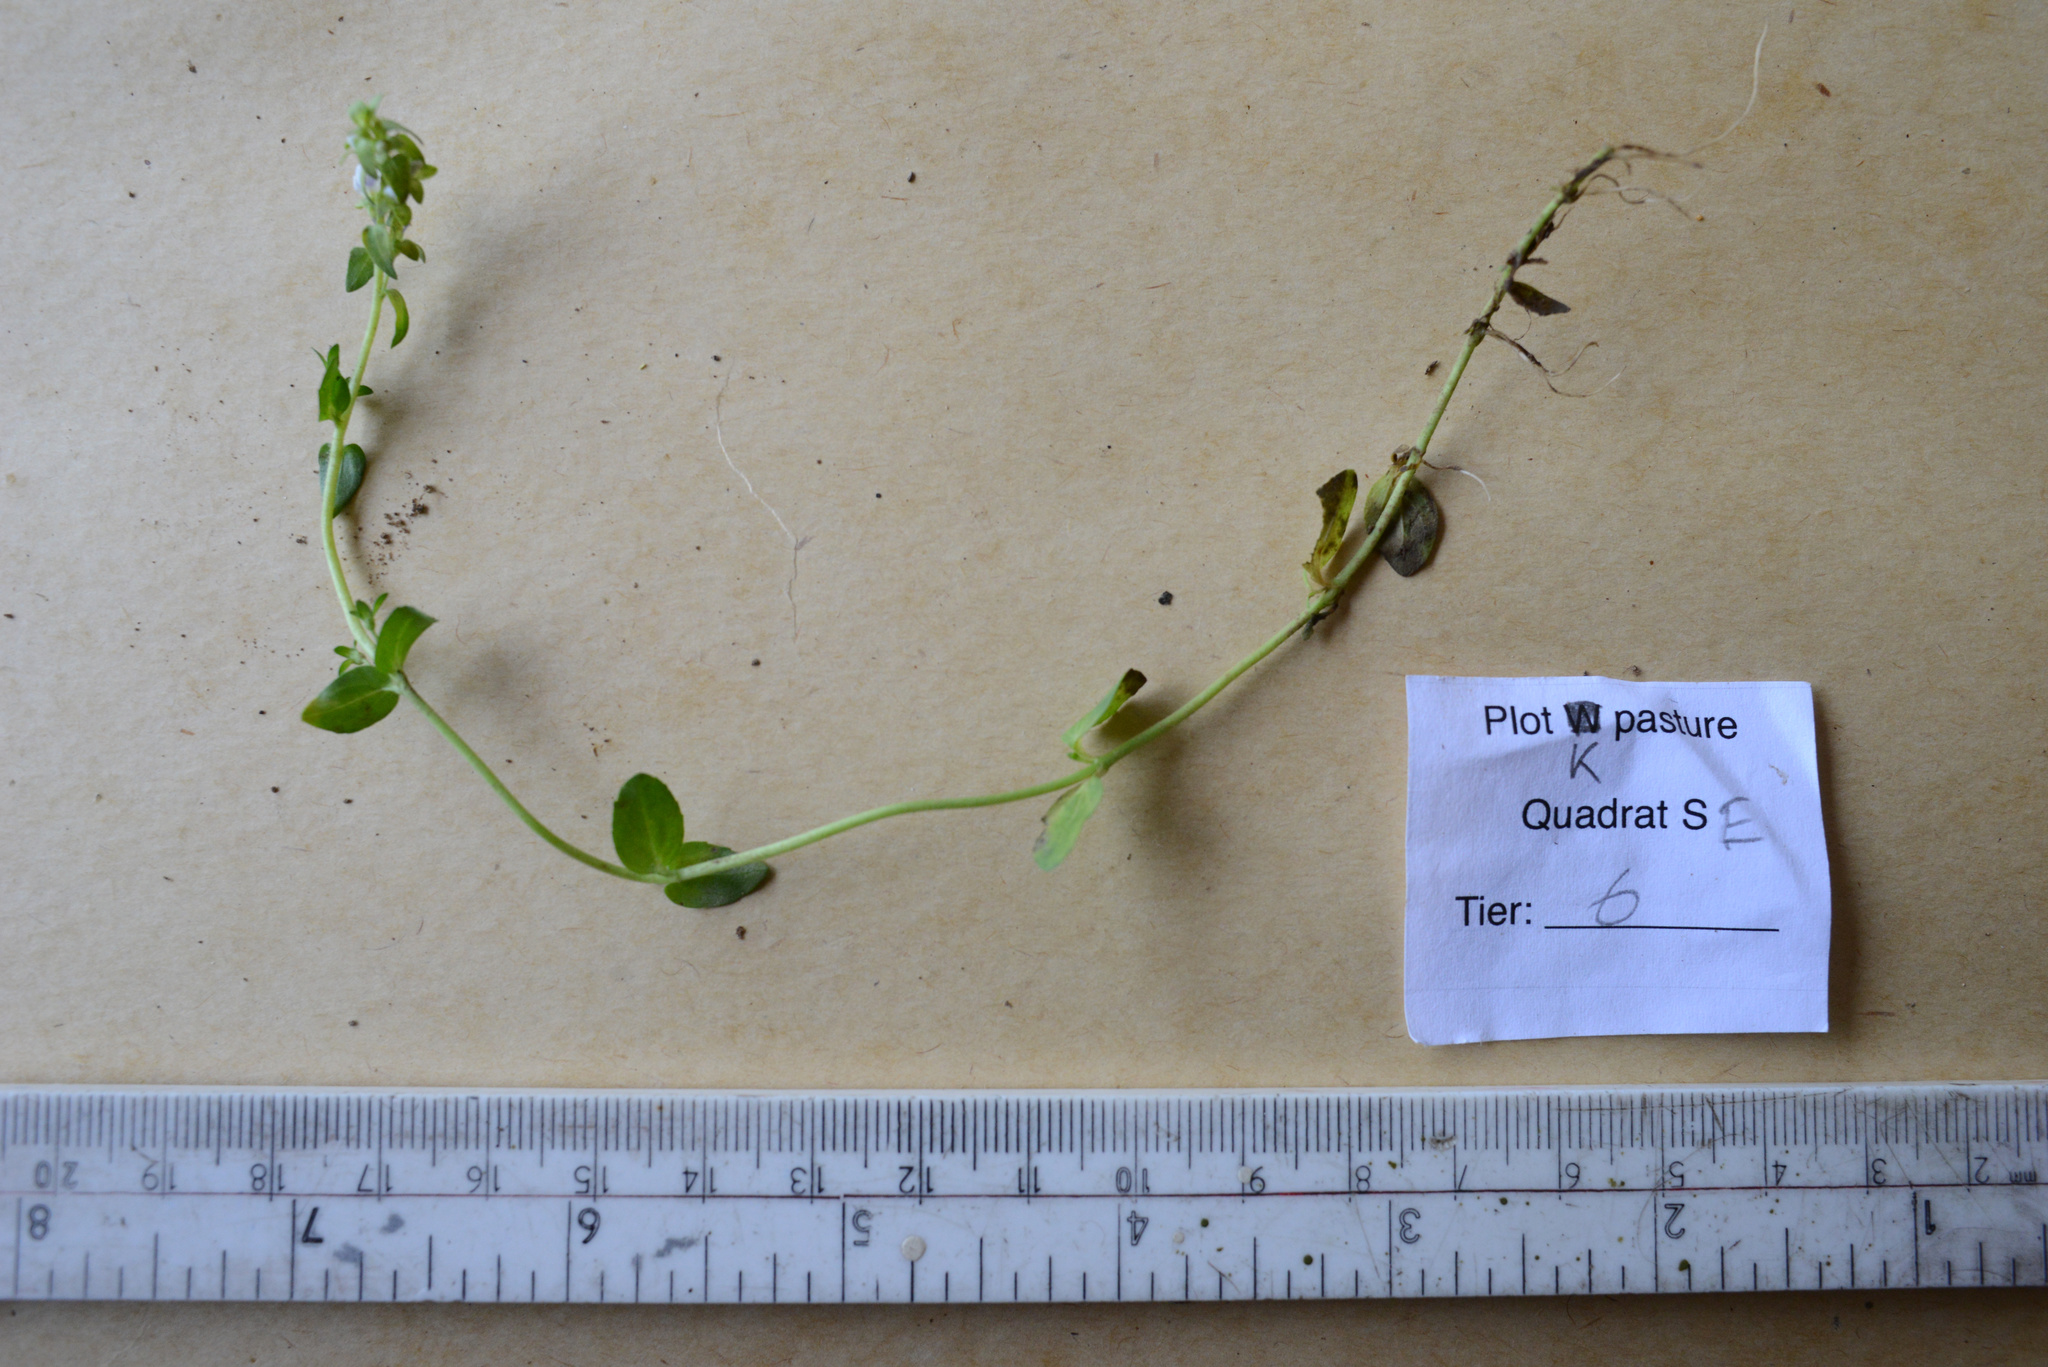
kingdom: Plantae
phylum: Tracheophyta
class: Magnoliopsida
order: Lamiales
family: Plantaginaceae
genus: Veronica
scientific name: Veronica serpyllifolia
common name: Thyme-leaved speedwell
